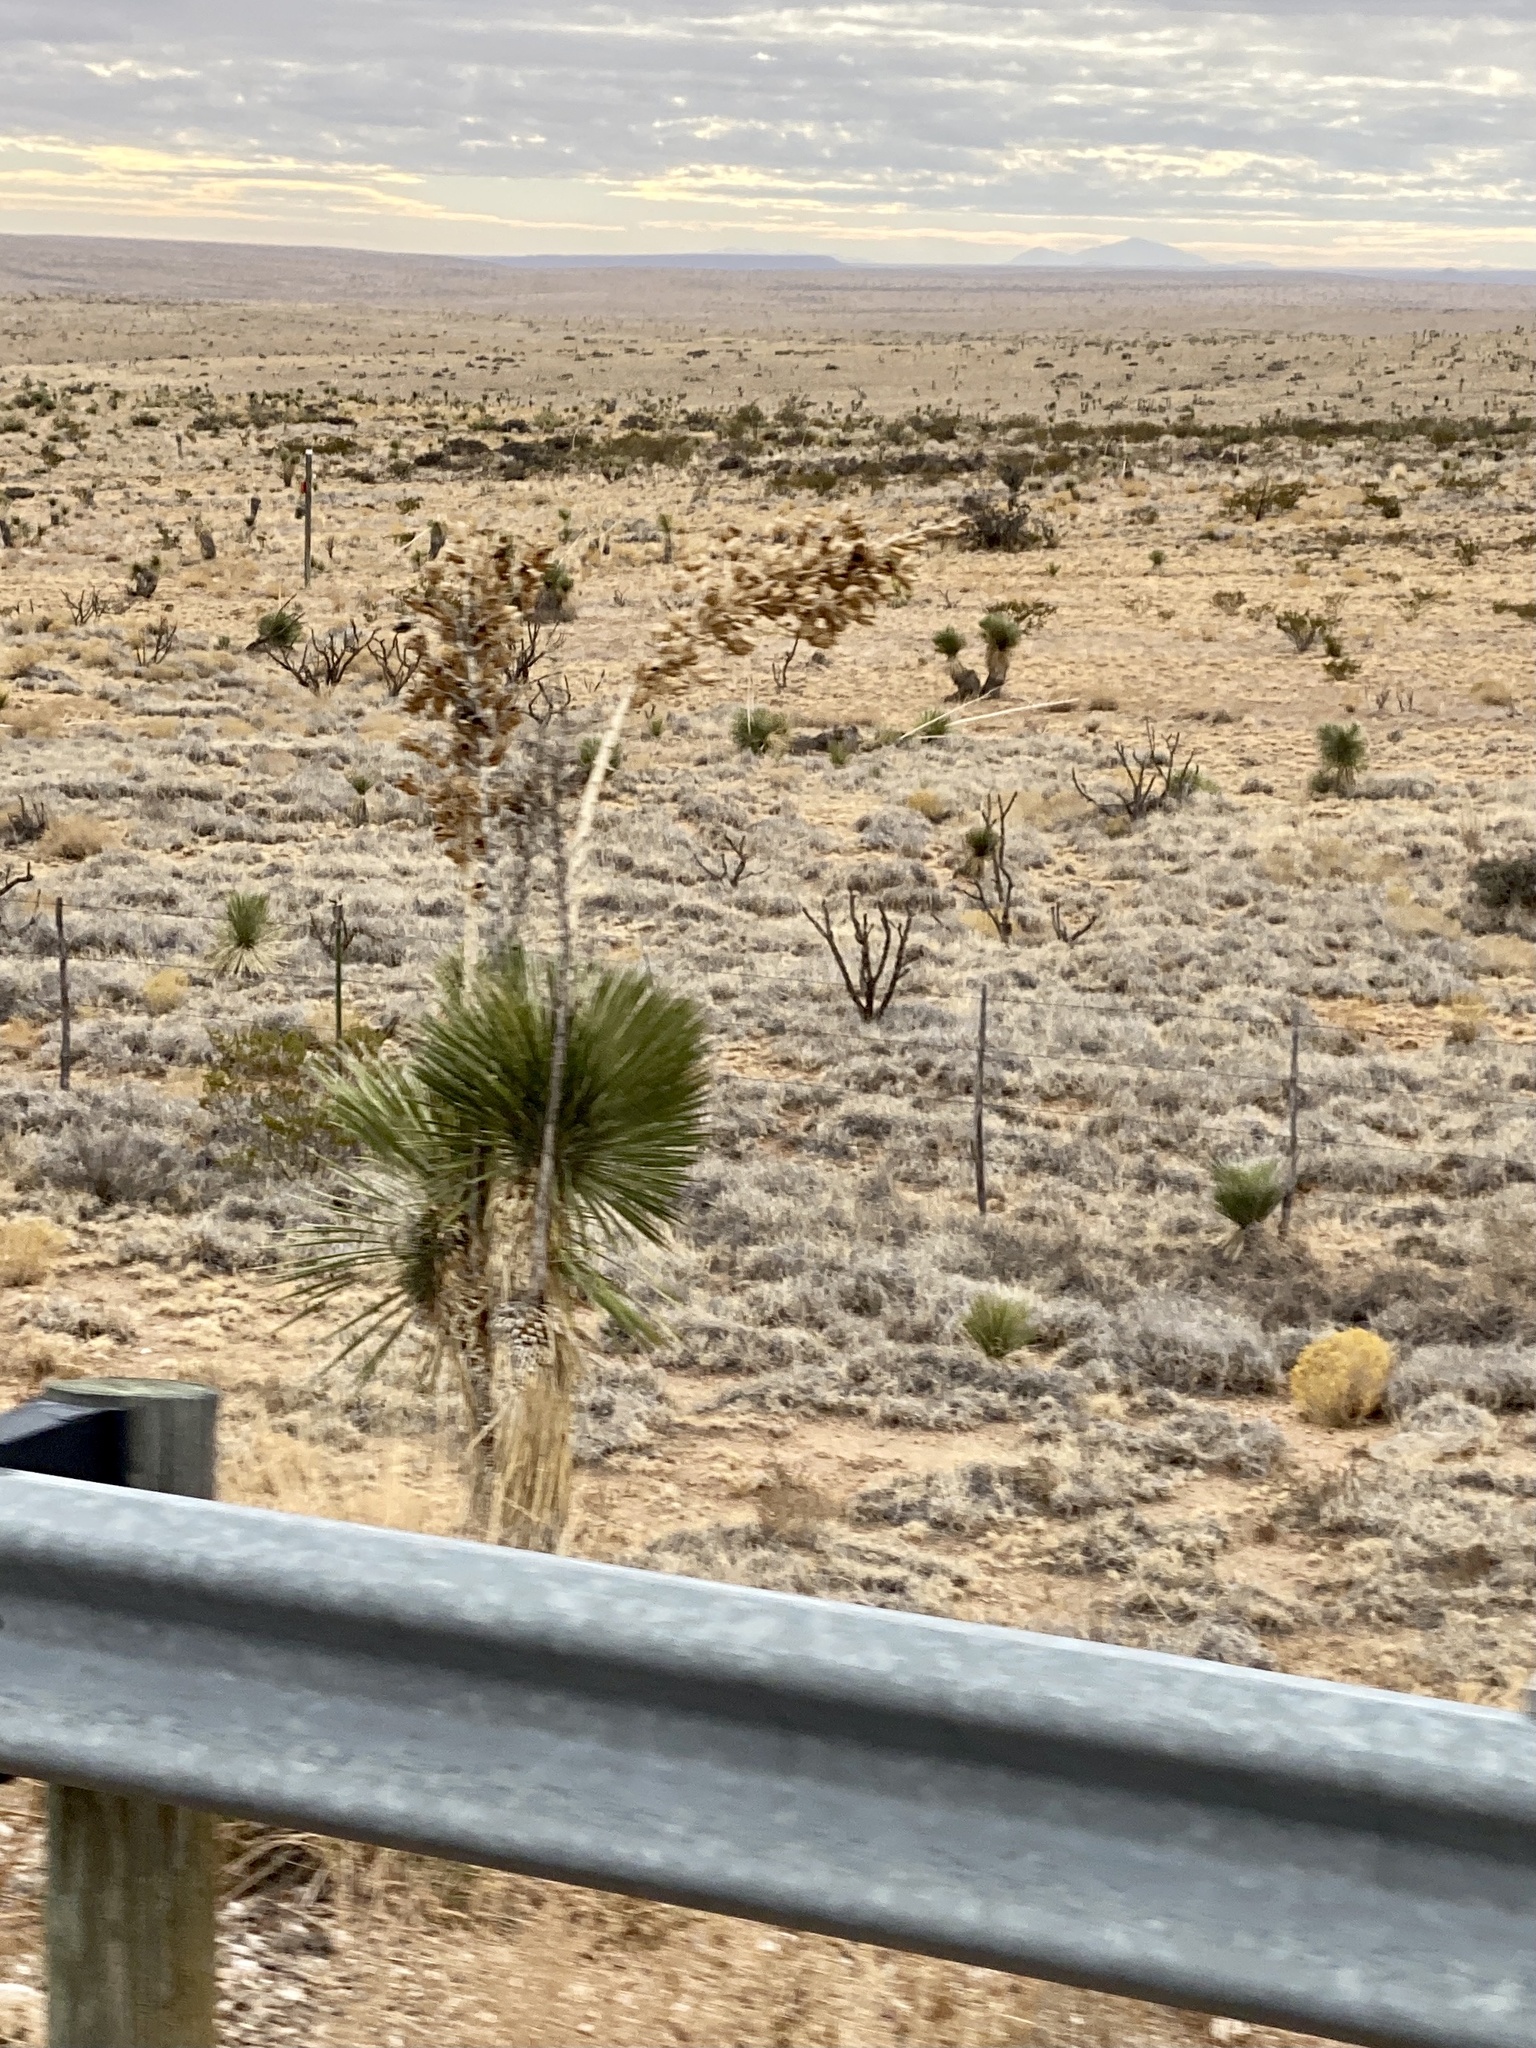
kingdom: Plantae
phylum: Tracheophyta
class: Liliopsida
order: Asparagales
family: Asparagaceae
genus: Yucca
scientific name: Yucca elata
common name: Palmella
